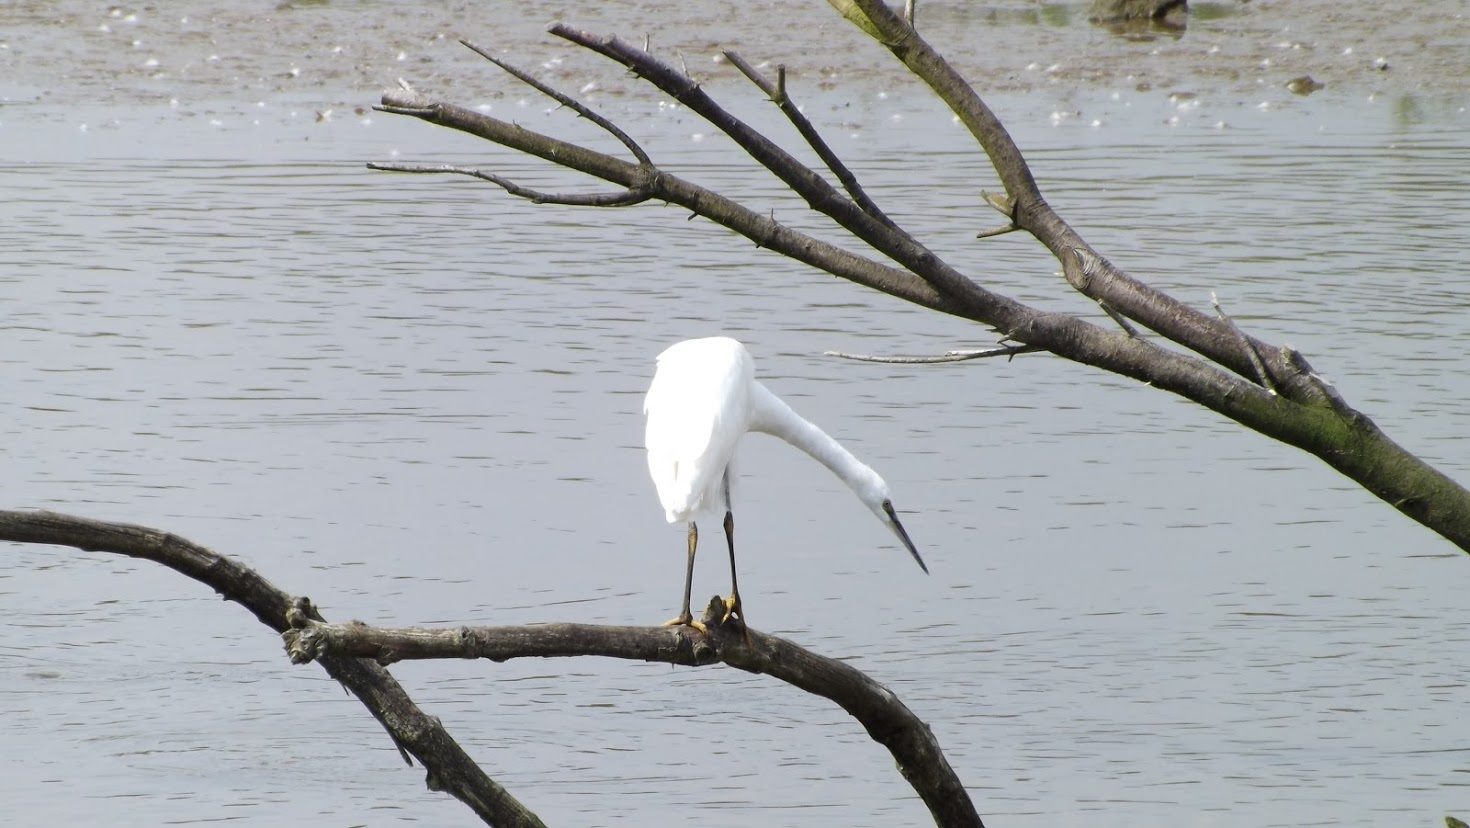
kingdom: Animalia
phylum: Chordata
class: Aves
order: Pelecaniformes
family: Ardeidae
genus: Egretta
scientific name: Egretta garzetta
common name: Little egret
